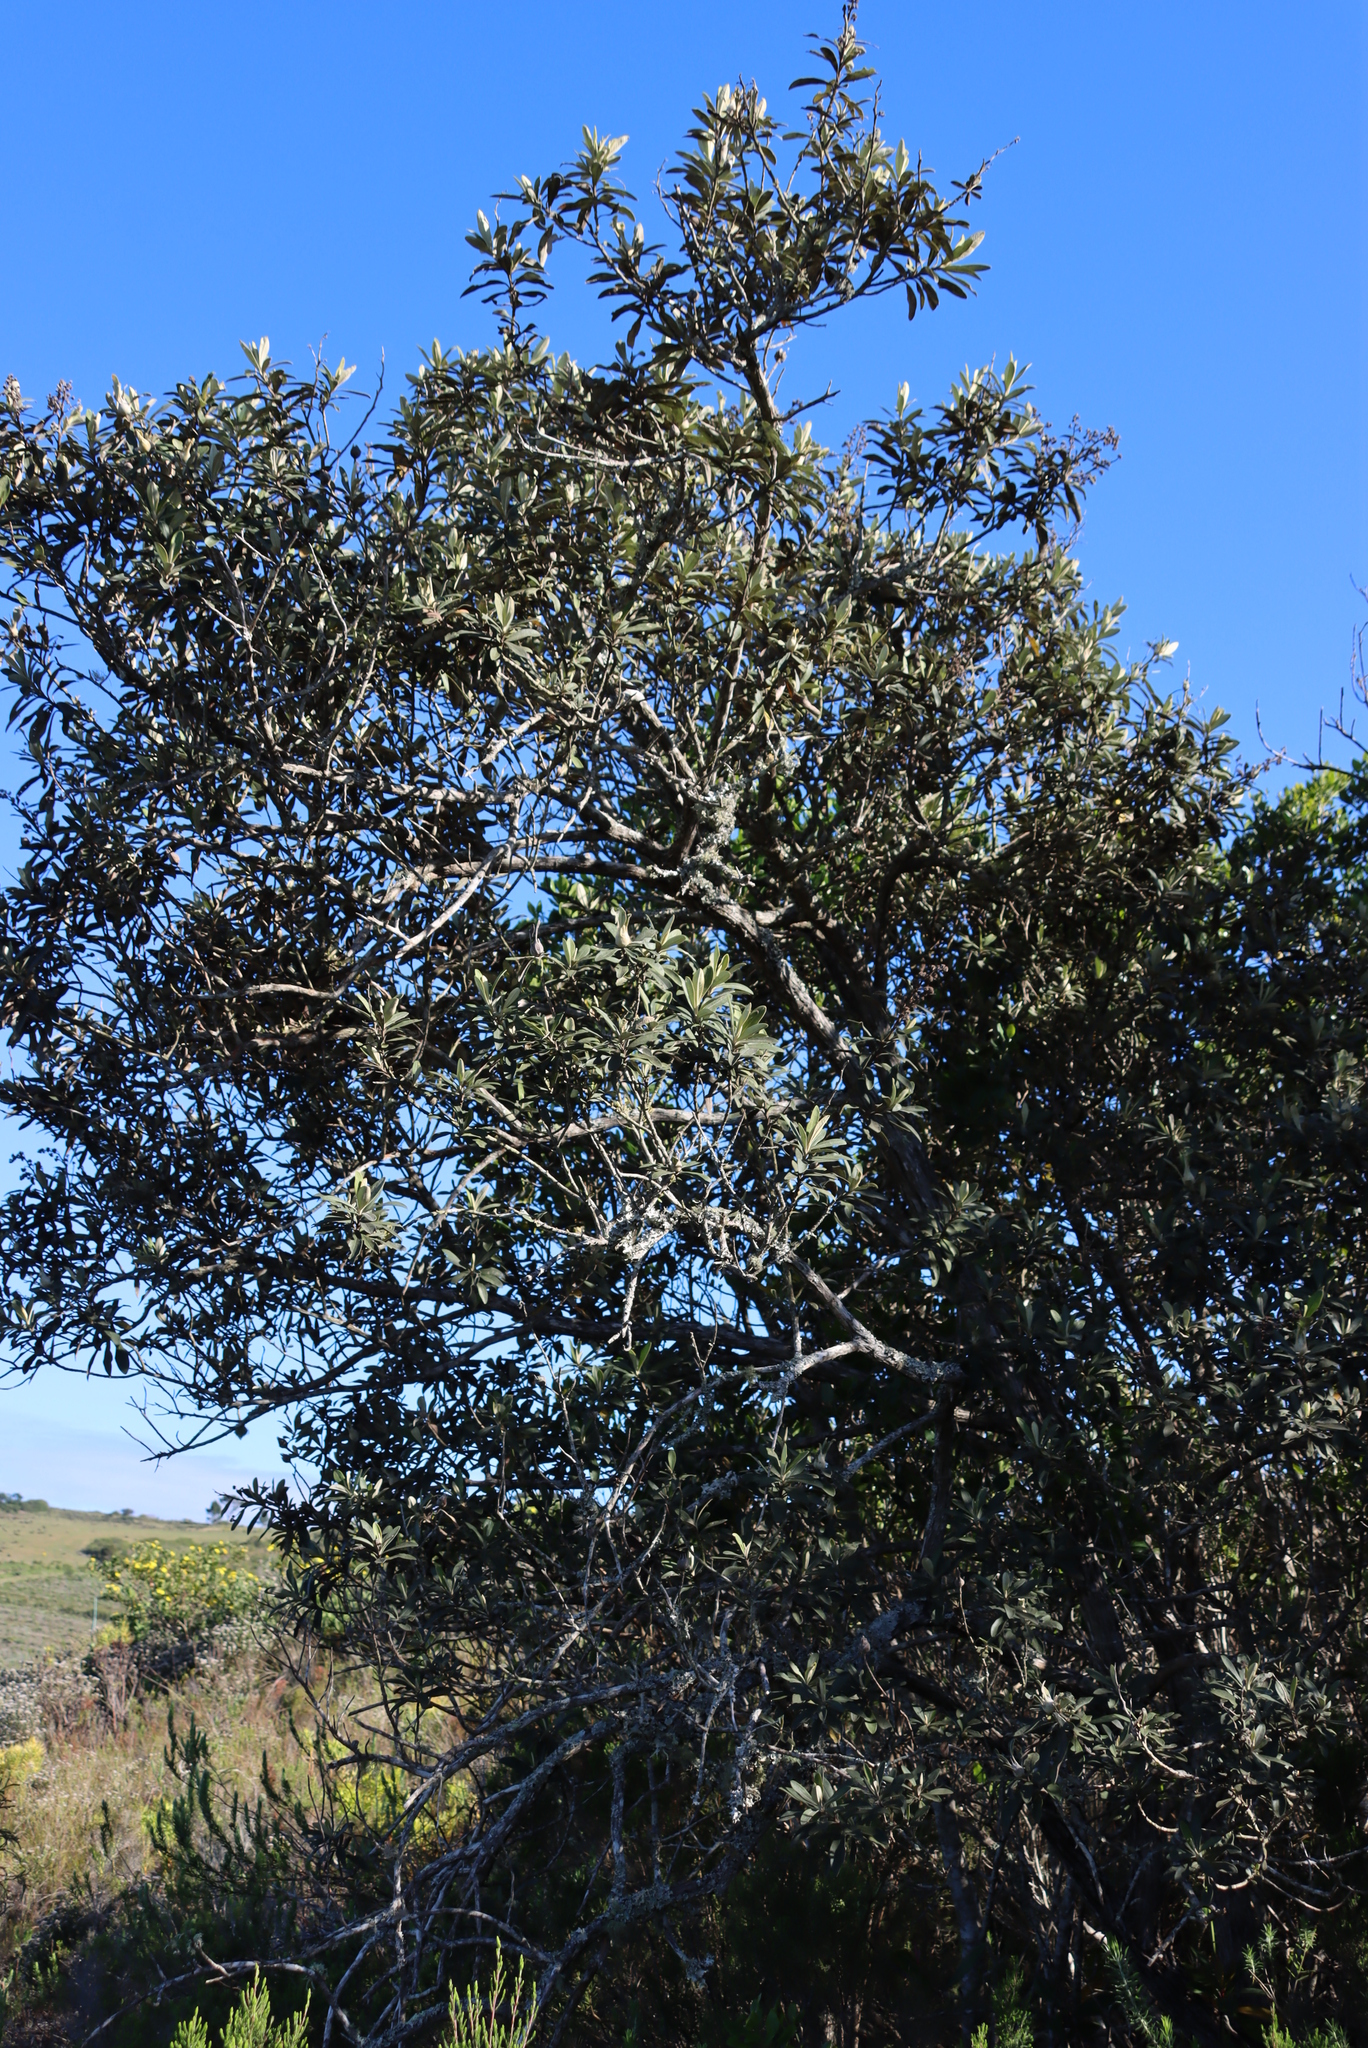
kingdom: Plantae
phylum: Tracheophyta
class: Magnoliopsida
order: Asterales
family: Asteraceae
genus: Tarchonanthus
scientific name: Tarchonanthus littoralis
